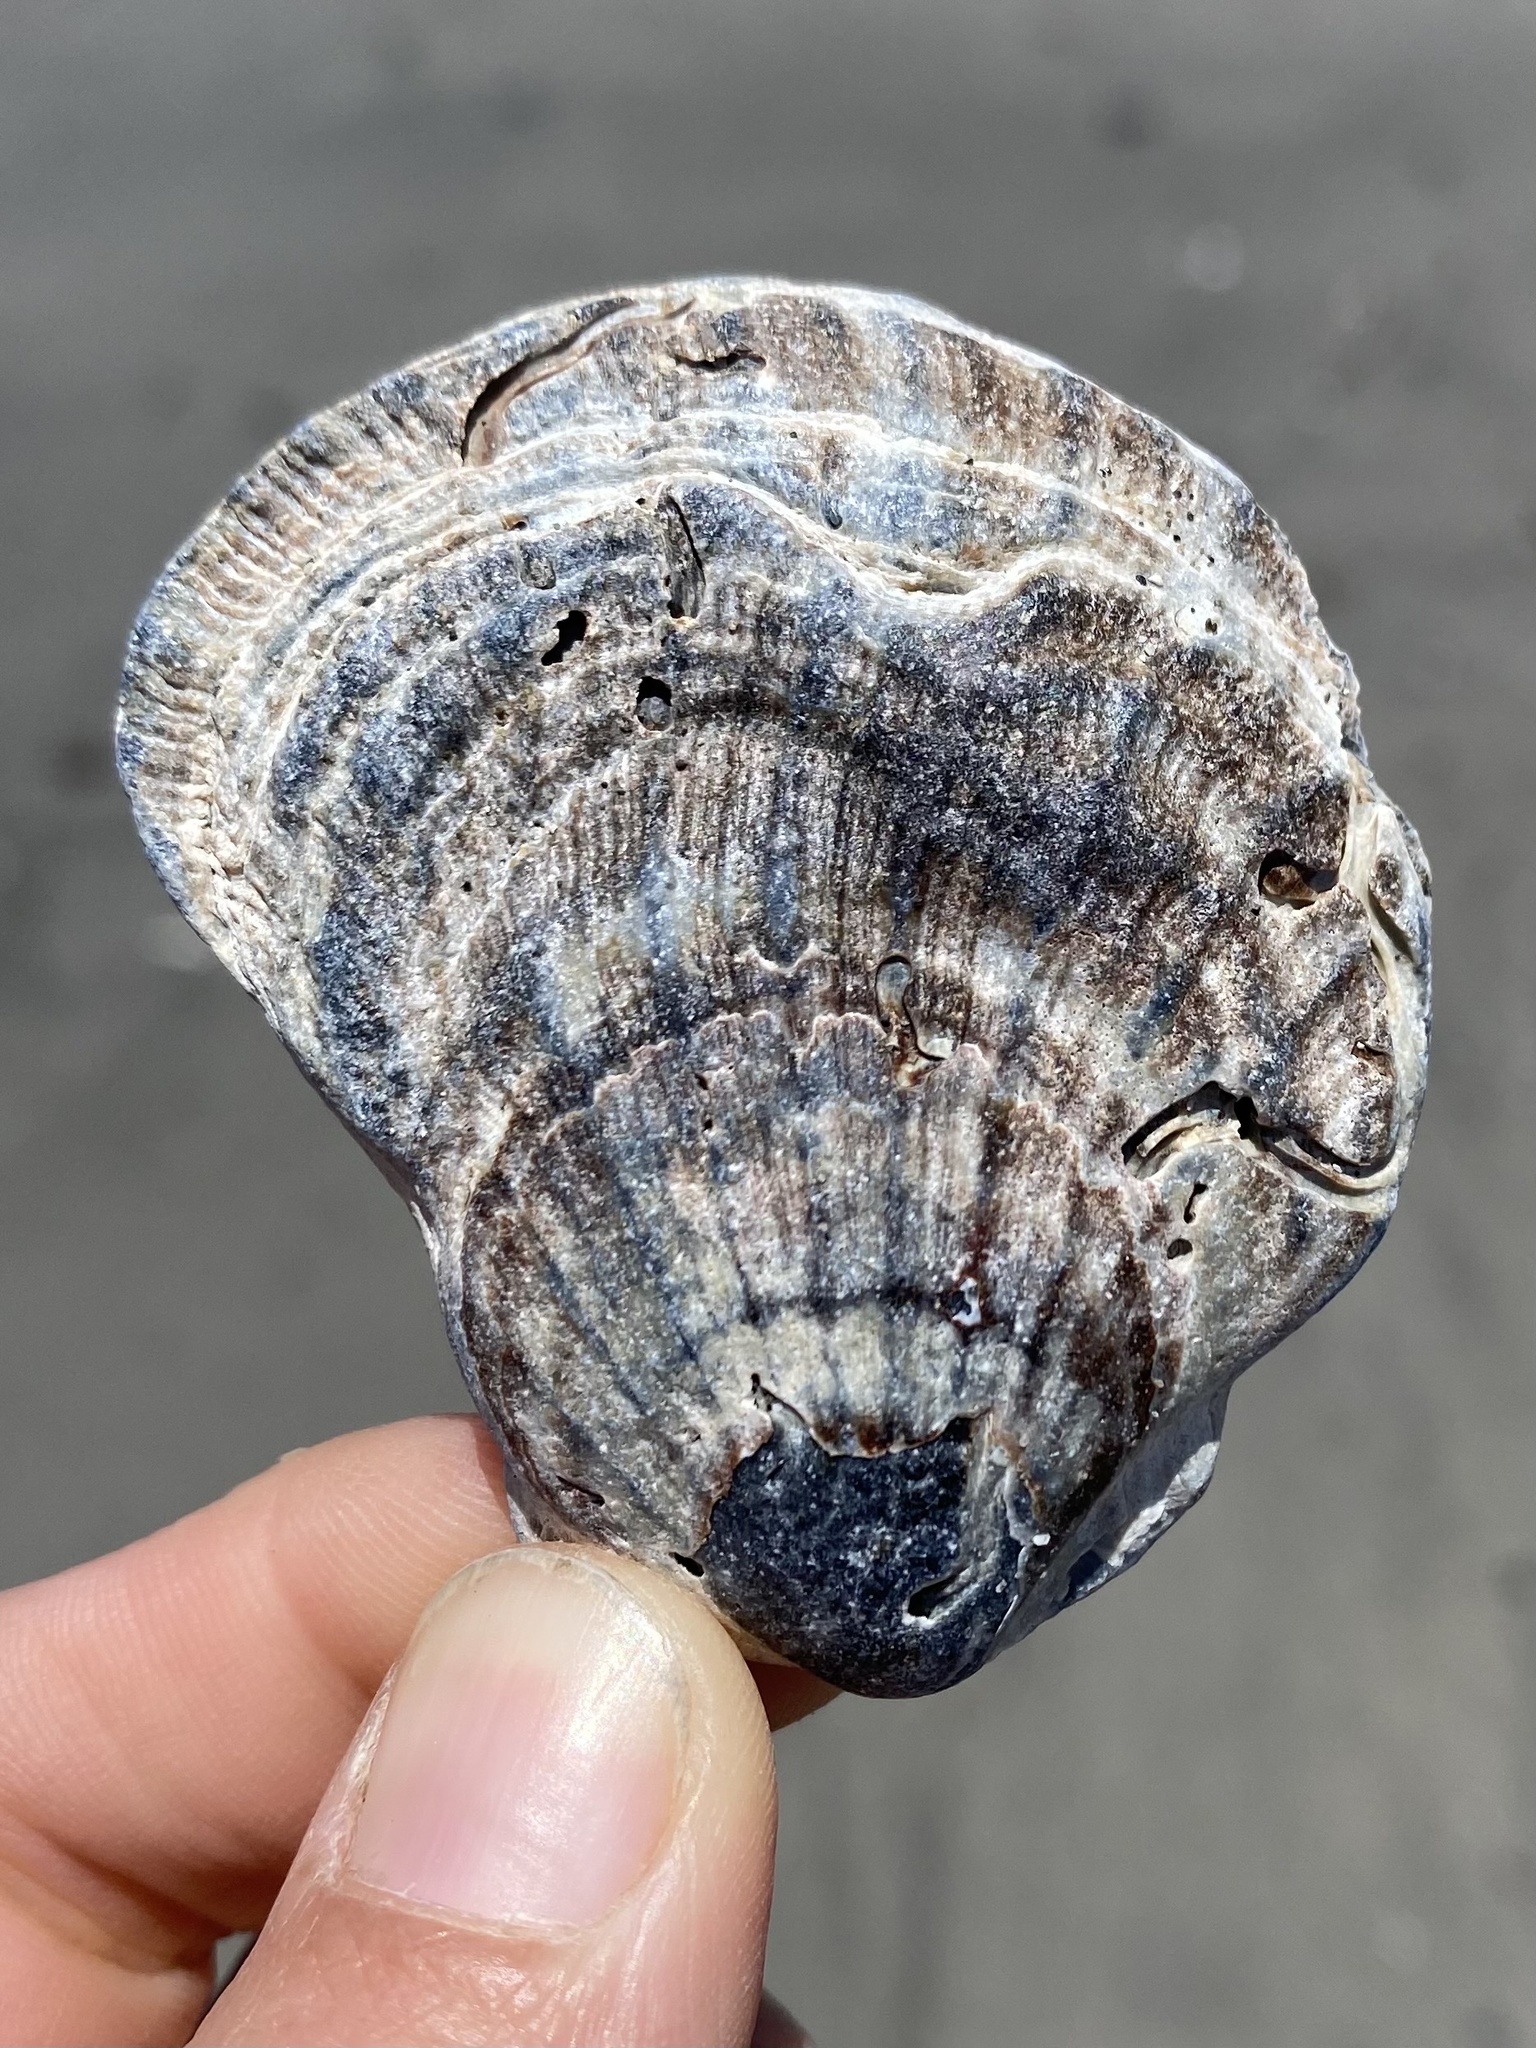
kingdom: Animalia
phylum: Mollusca
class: Bivalvia
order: Pectinida
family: Pectinidae
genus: Crassadoma
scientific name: Crassadoma gigantea
